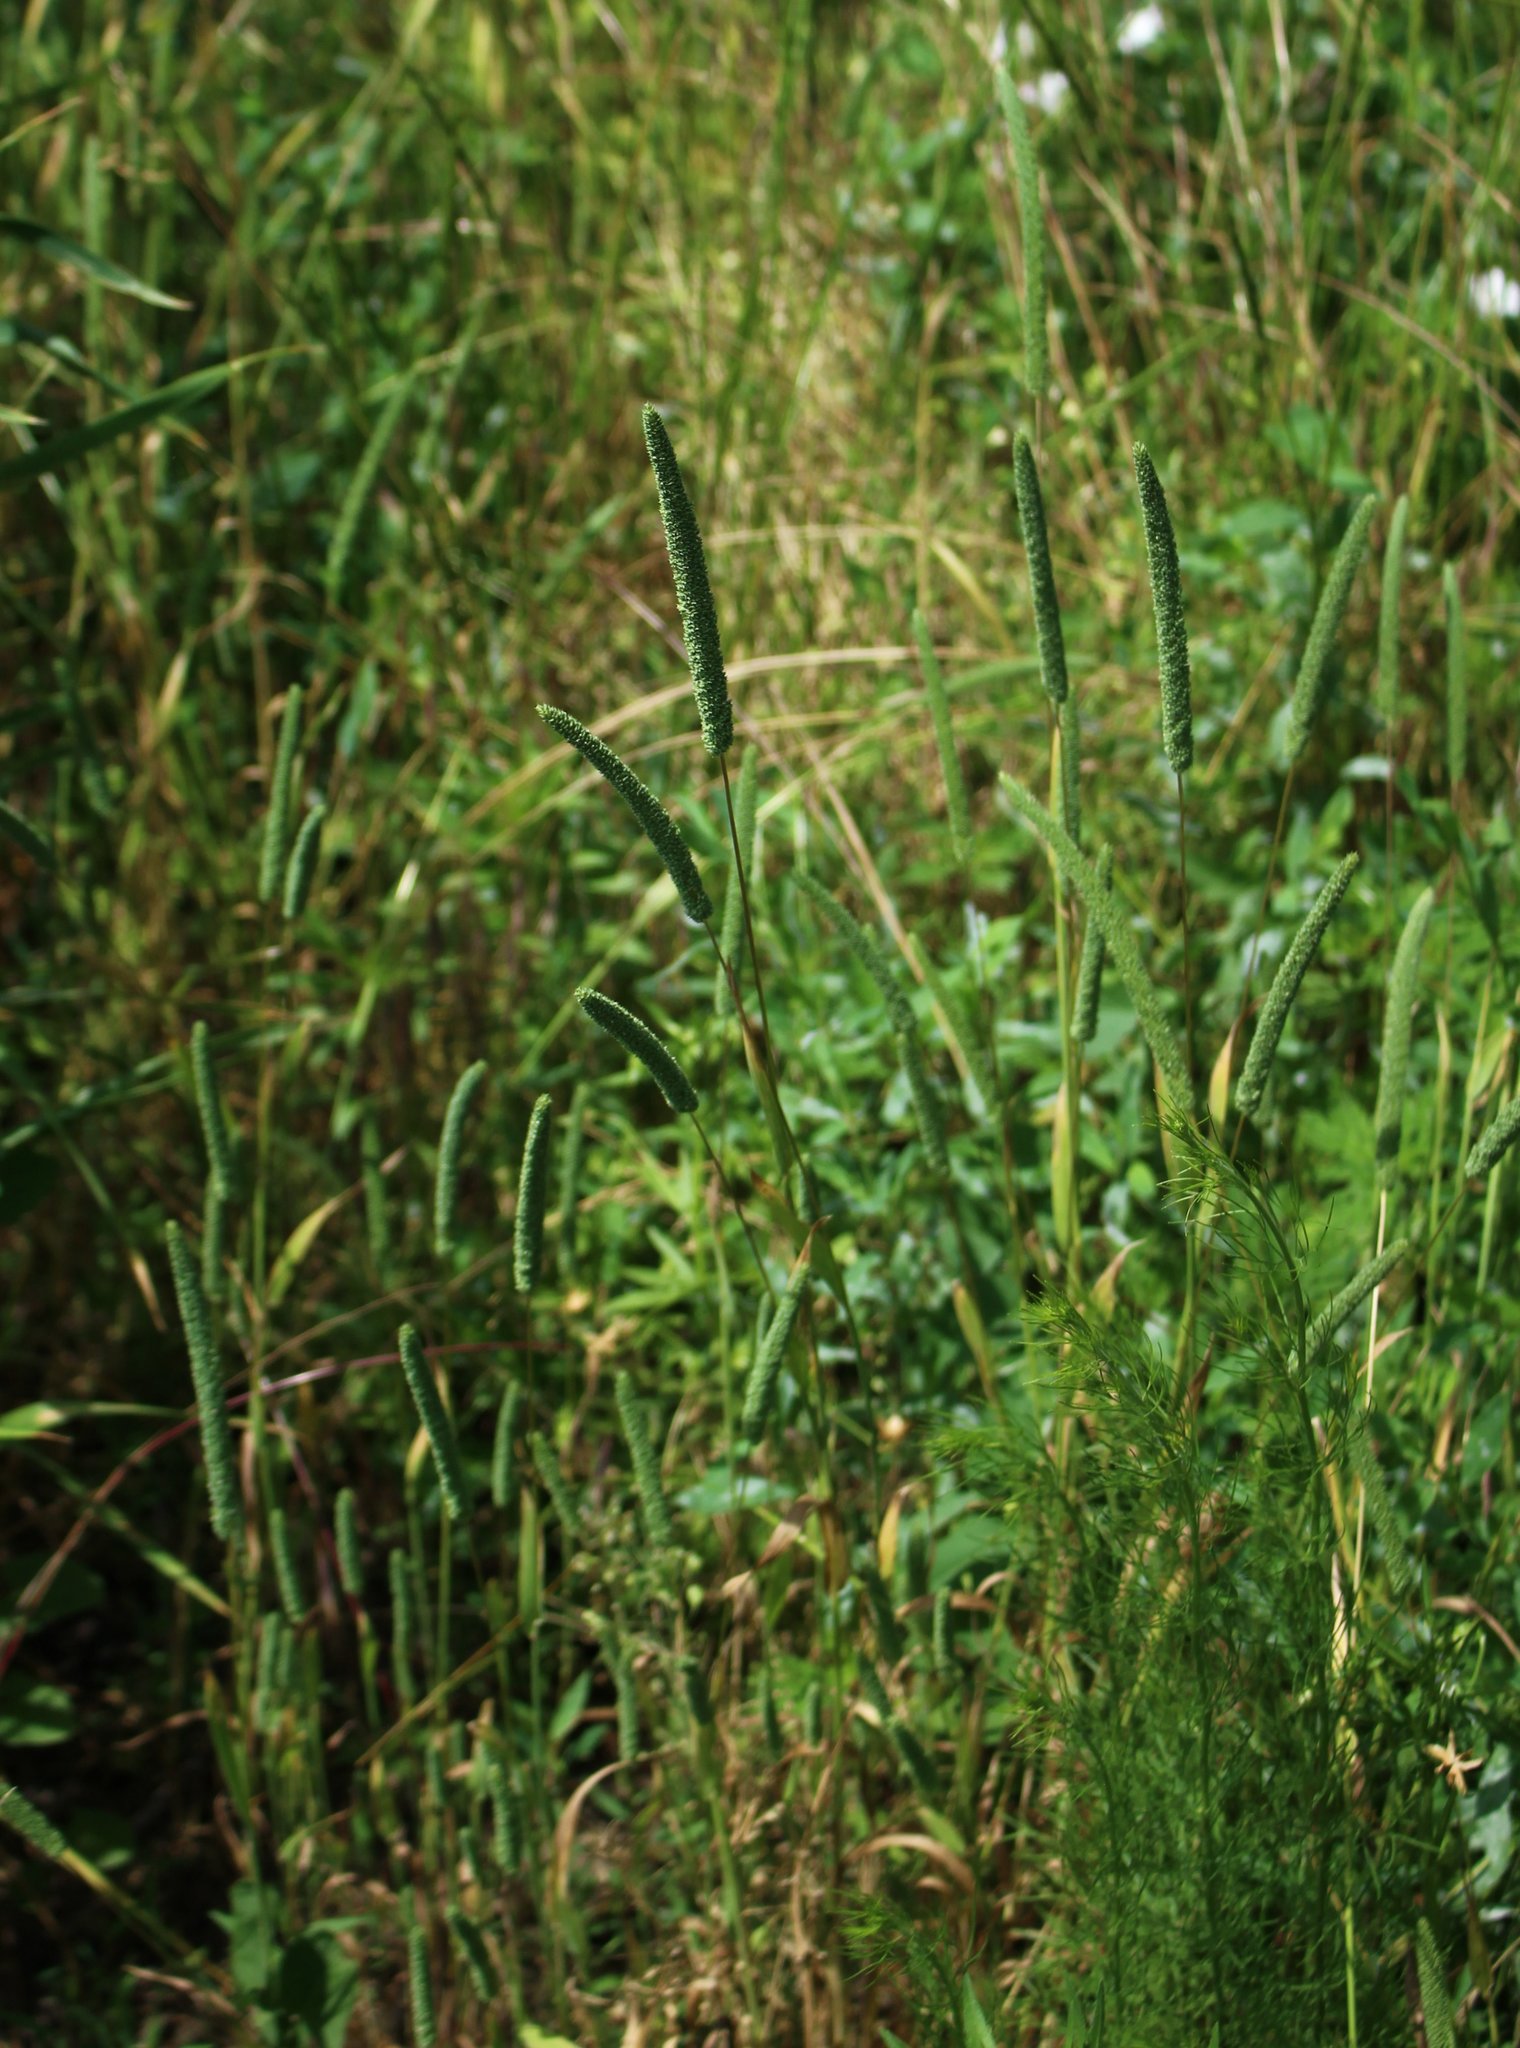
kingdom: Plantae
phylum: Tracheophyta
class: Liliopsida
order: Poales
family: Poaceae
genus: Phleum
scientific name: Phleum phleoides
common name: Purple-stem cat's-tail
